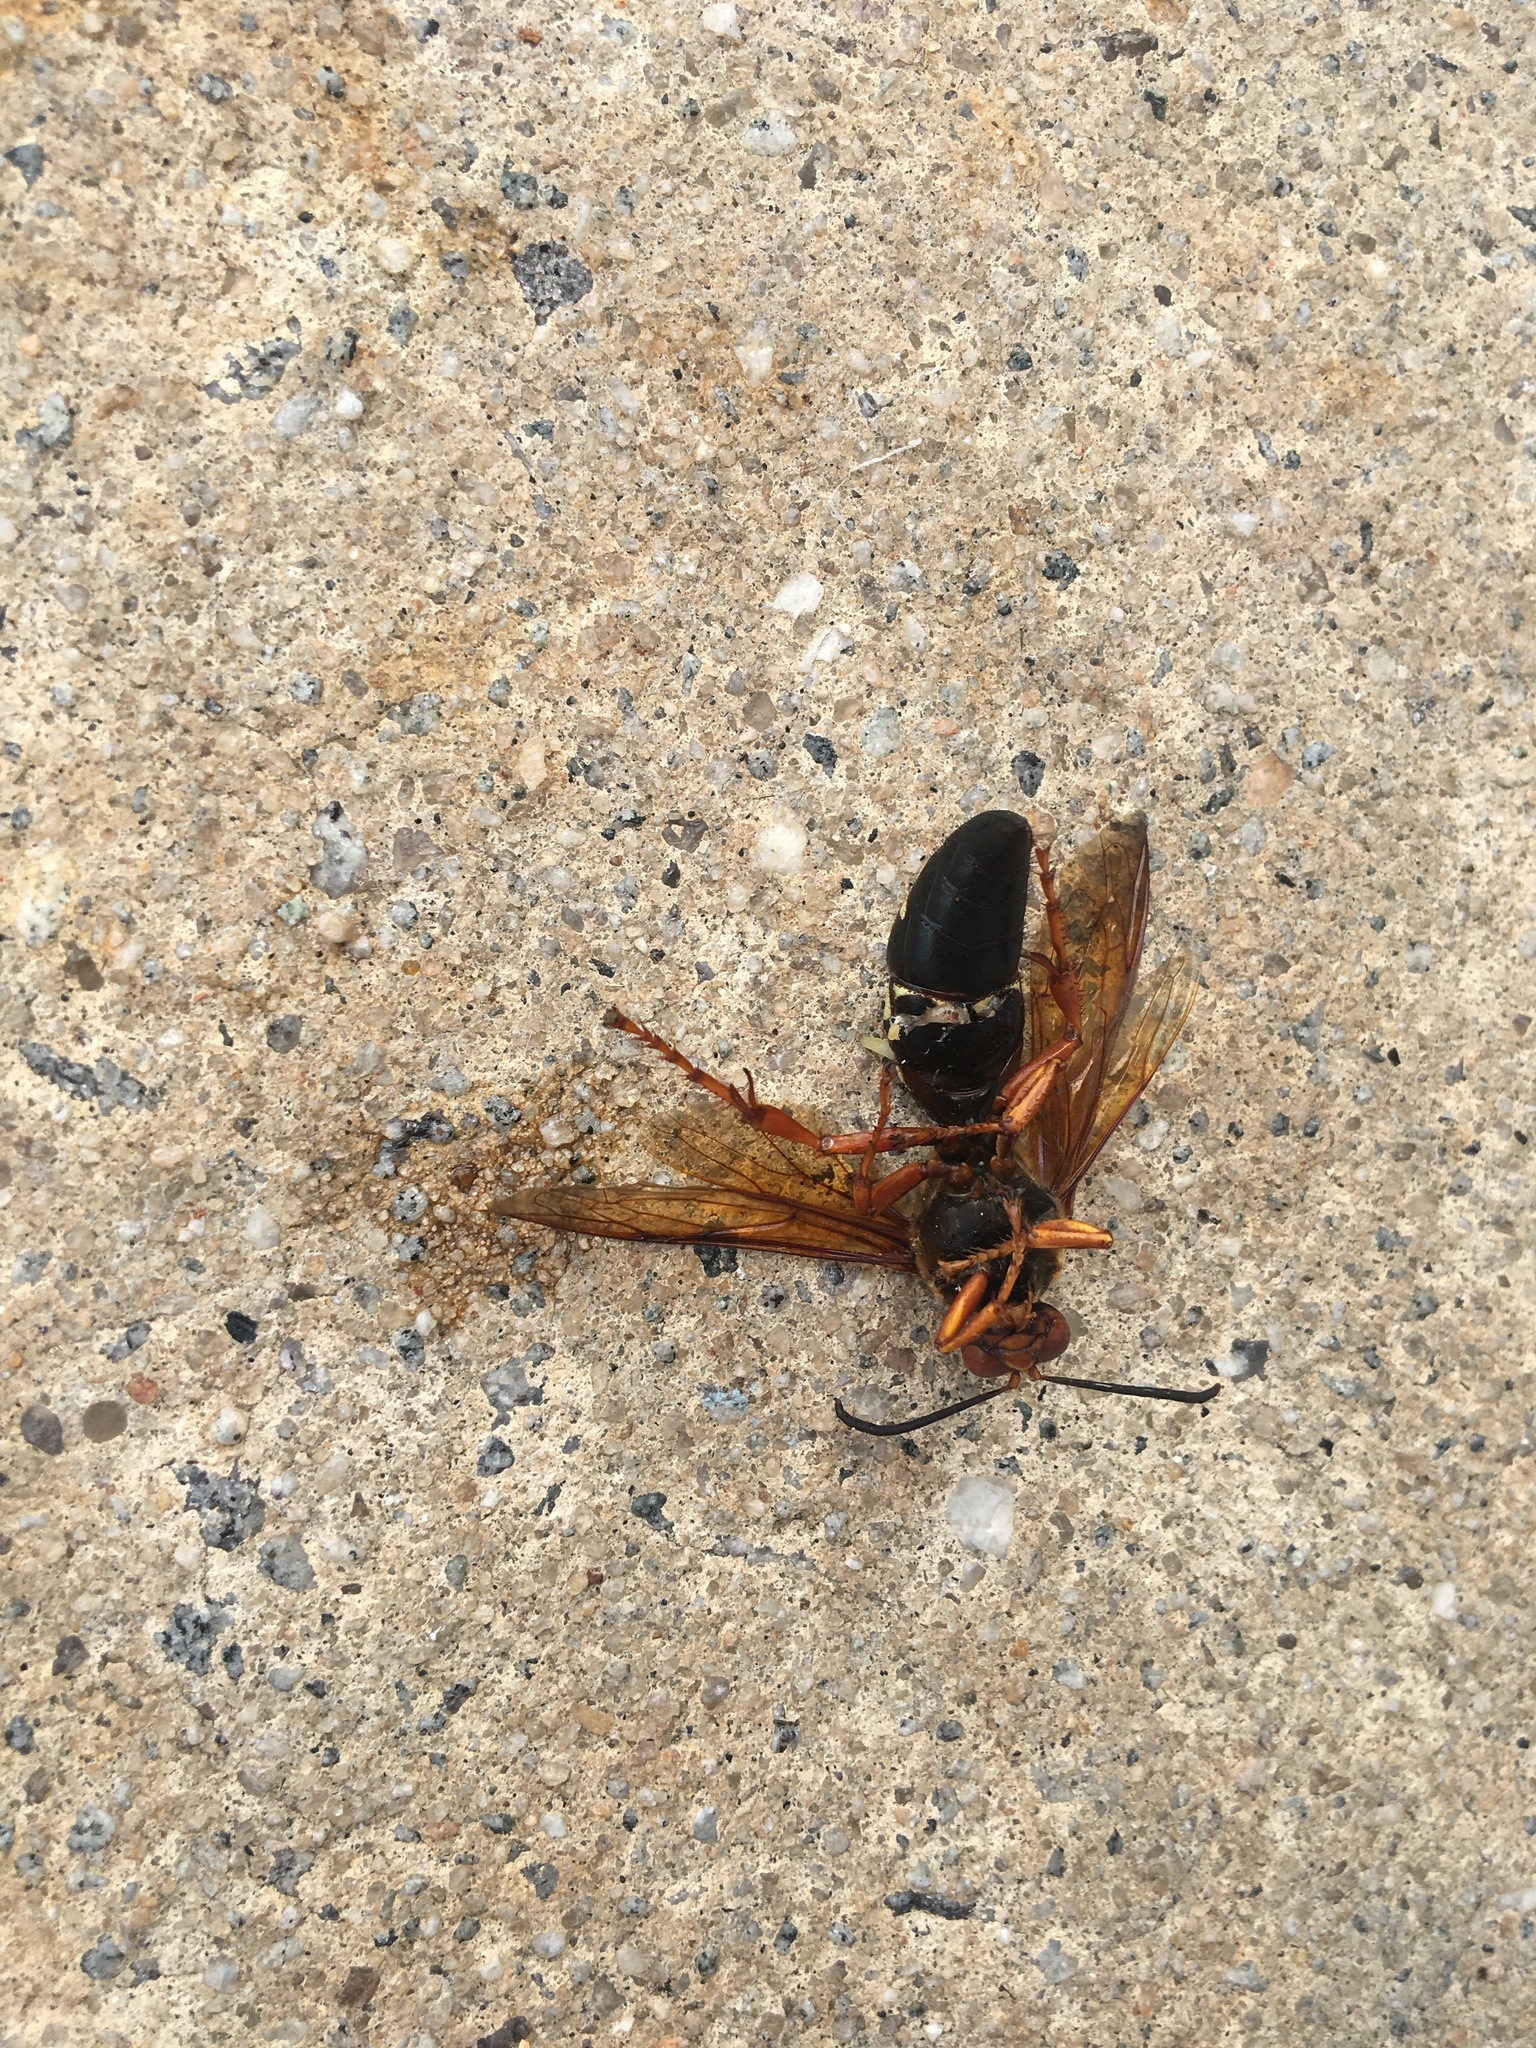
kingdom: Animalia
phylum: Arthropoda
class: Insecta
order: Hymenoptera
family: Crabronidae
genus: Sphecius
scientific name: Sphecius speciosus
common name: Cicada killer
